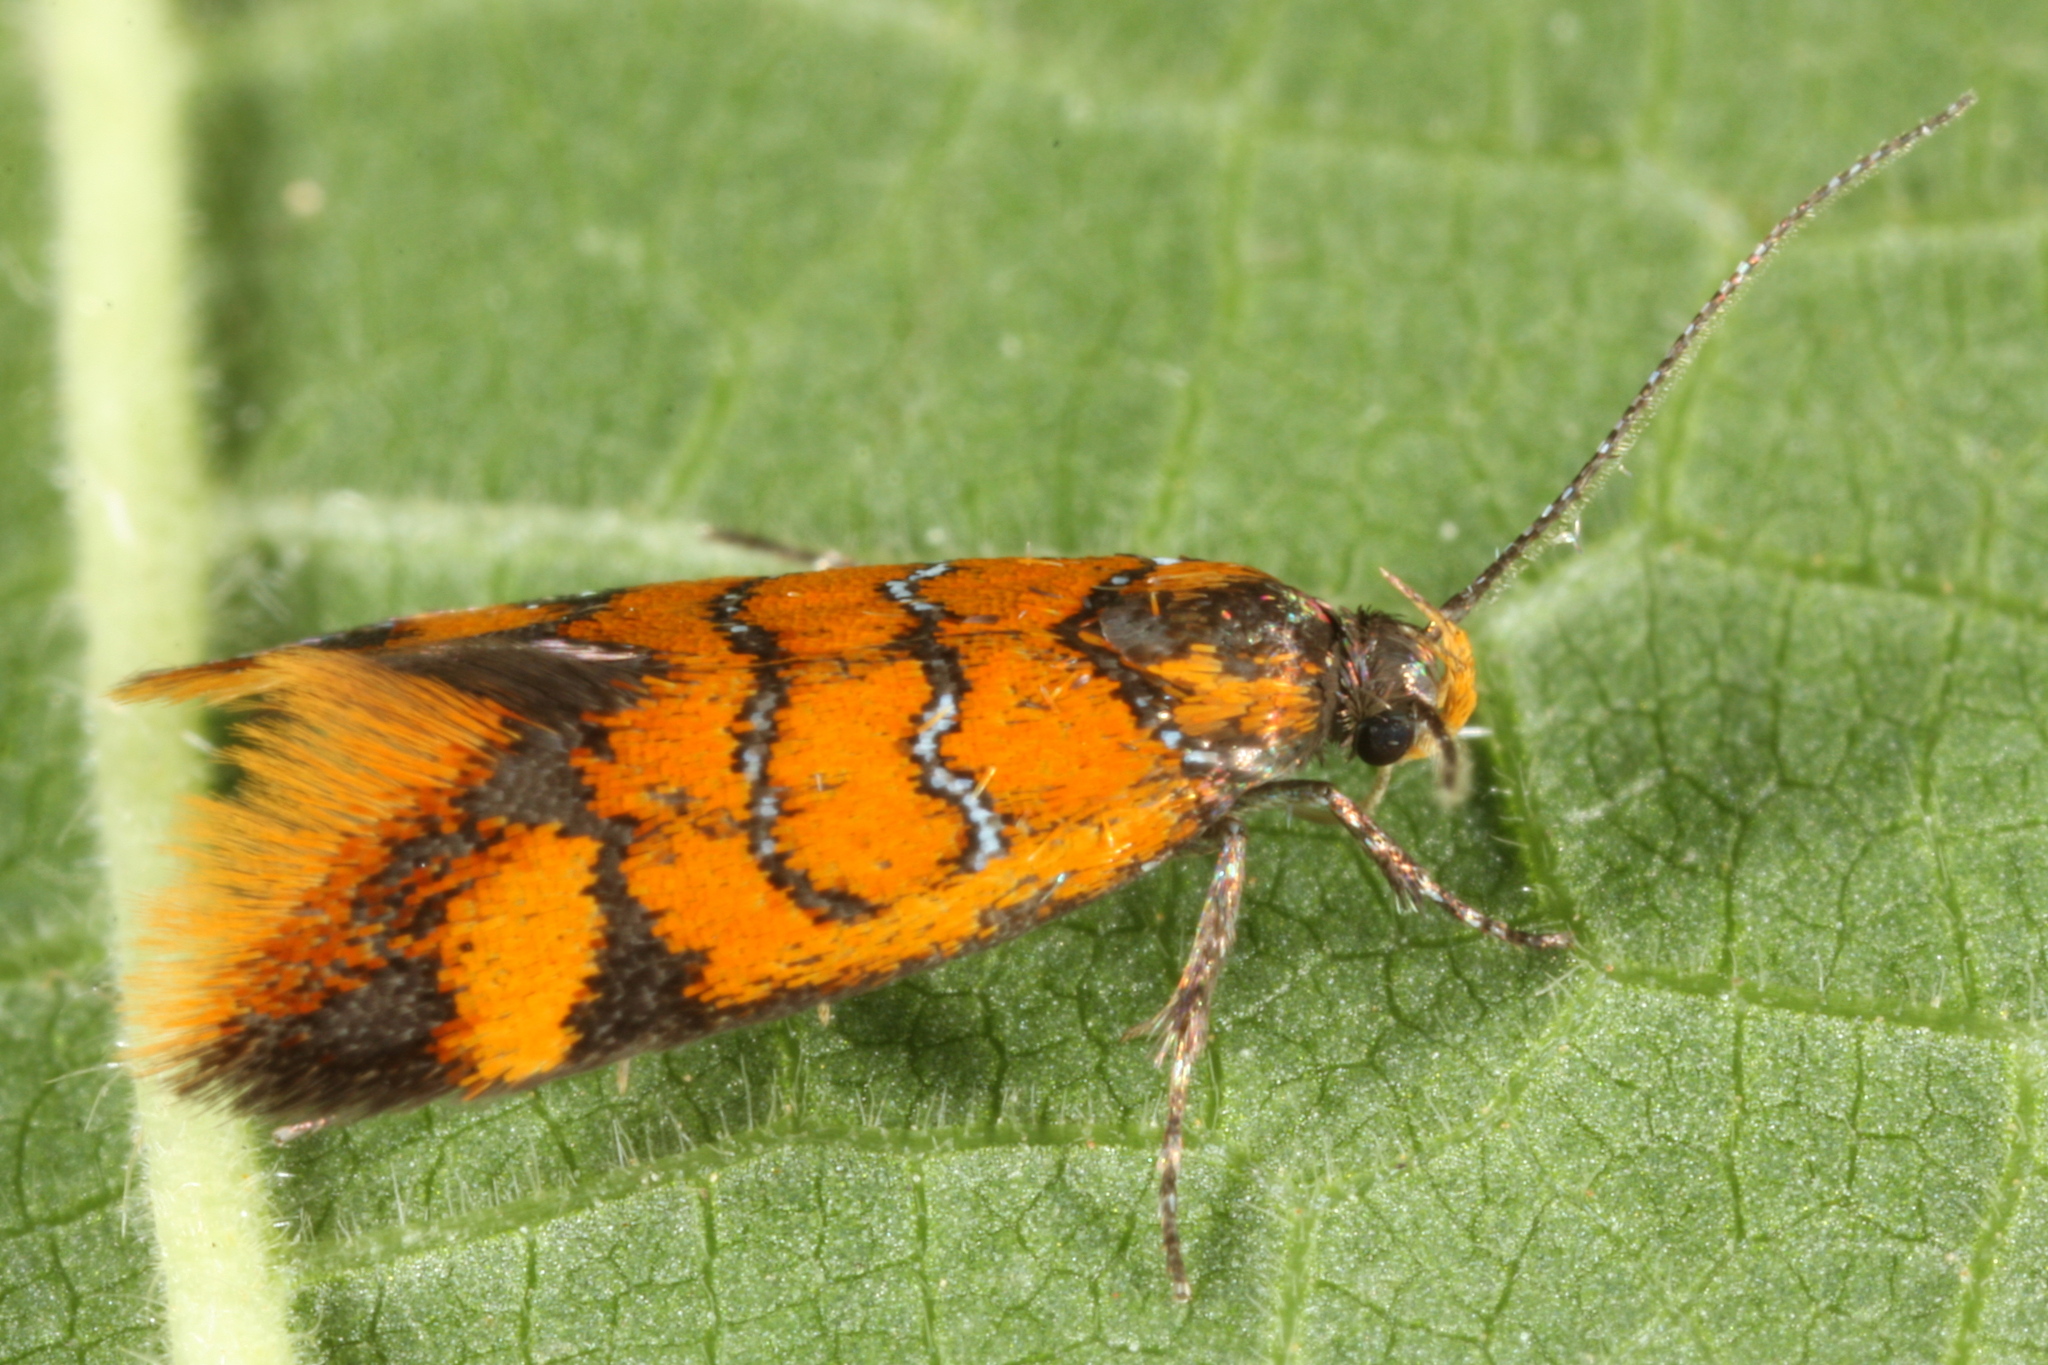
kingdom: Animalia
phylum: Arthropoda
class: Insecta
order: Lepidoptera
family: Oecophoridae
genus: Schiffermuelleria
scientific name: Schiffermuelleria procerella
